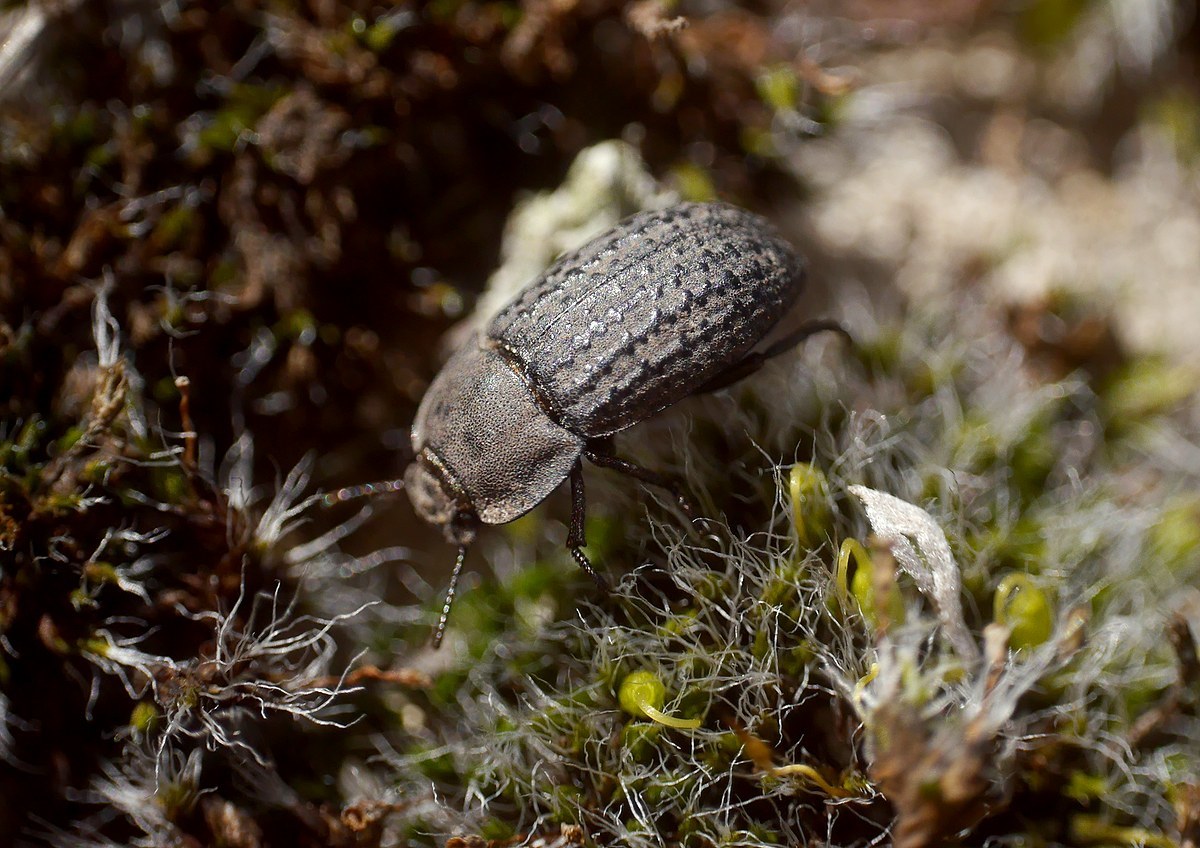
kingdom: Animalia
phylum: Arthropoda
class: Insecta
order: Coleoptera
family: Tenebrionidae
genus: Opatrum
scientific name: Opatrum sabulosum
